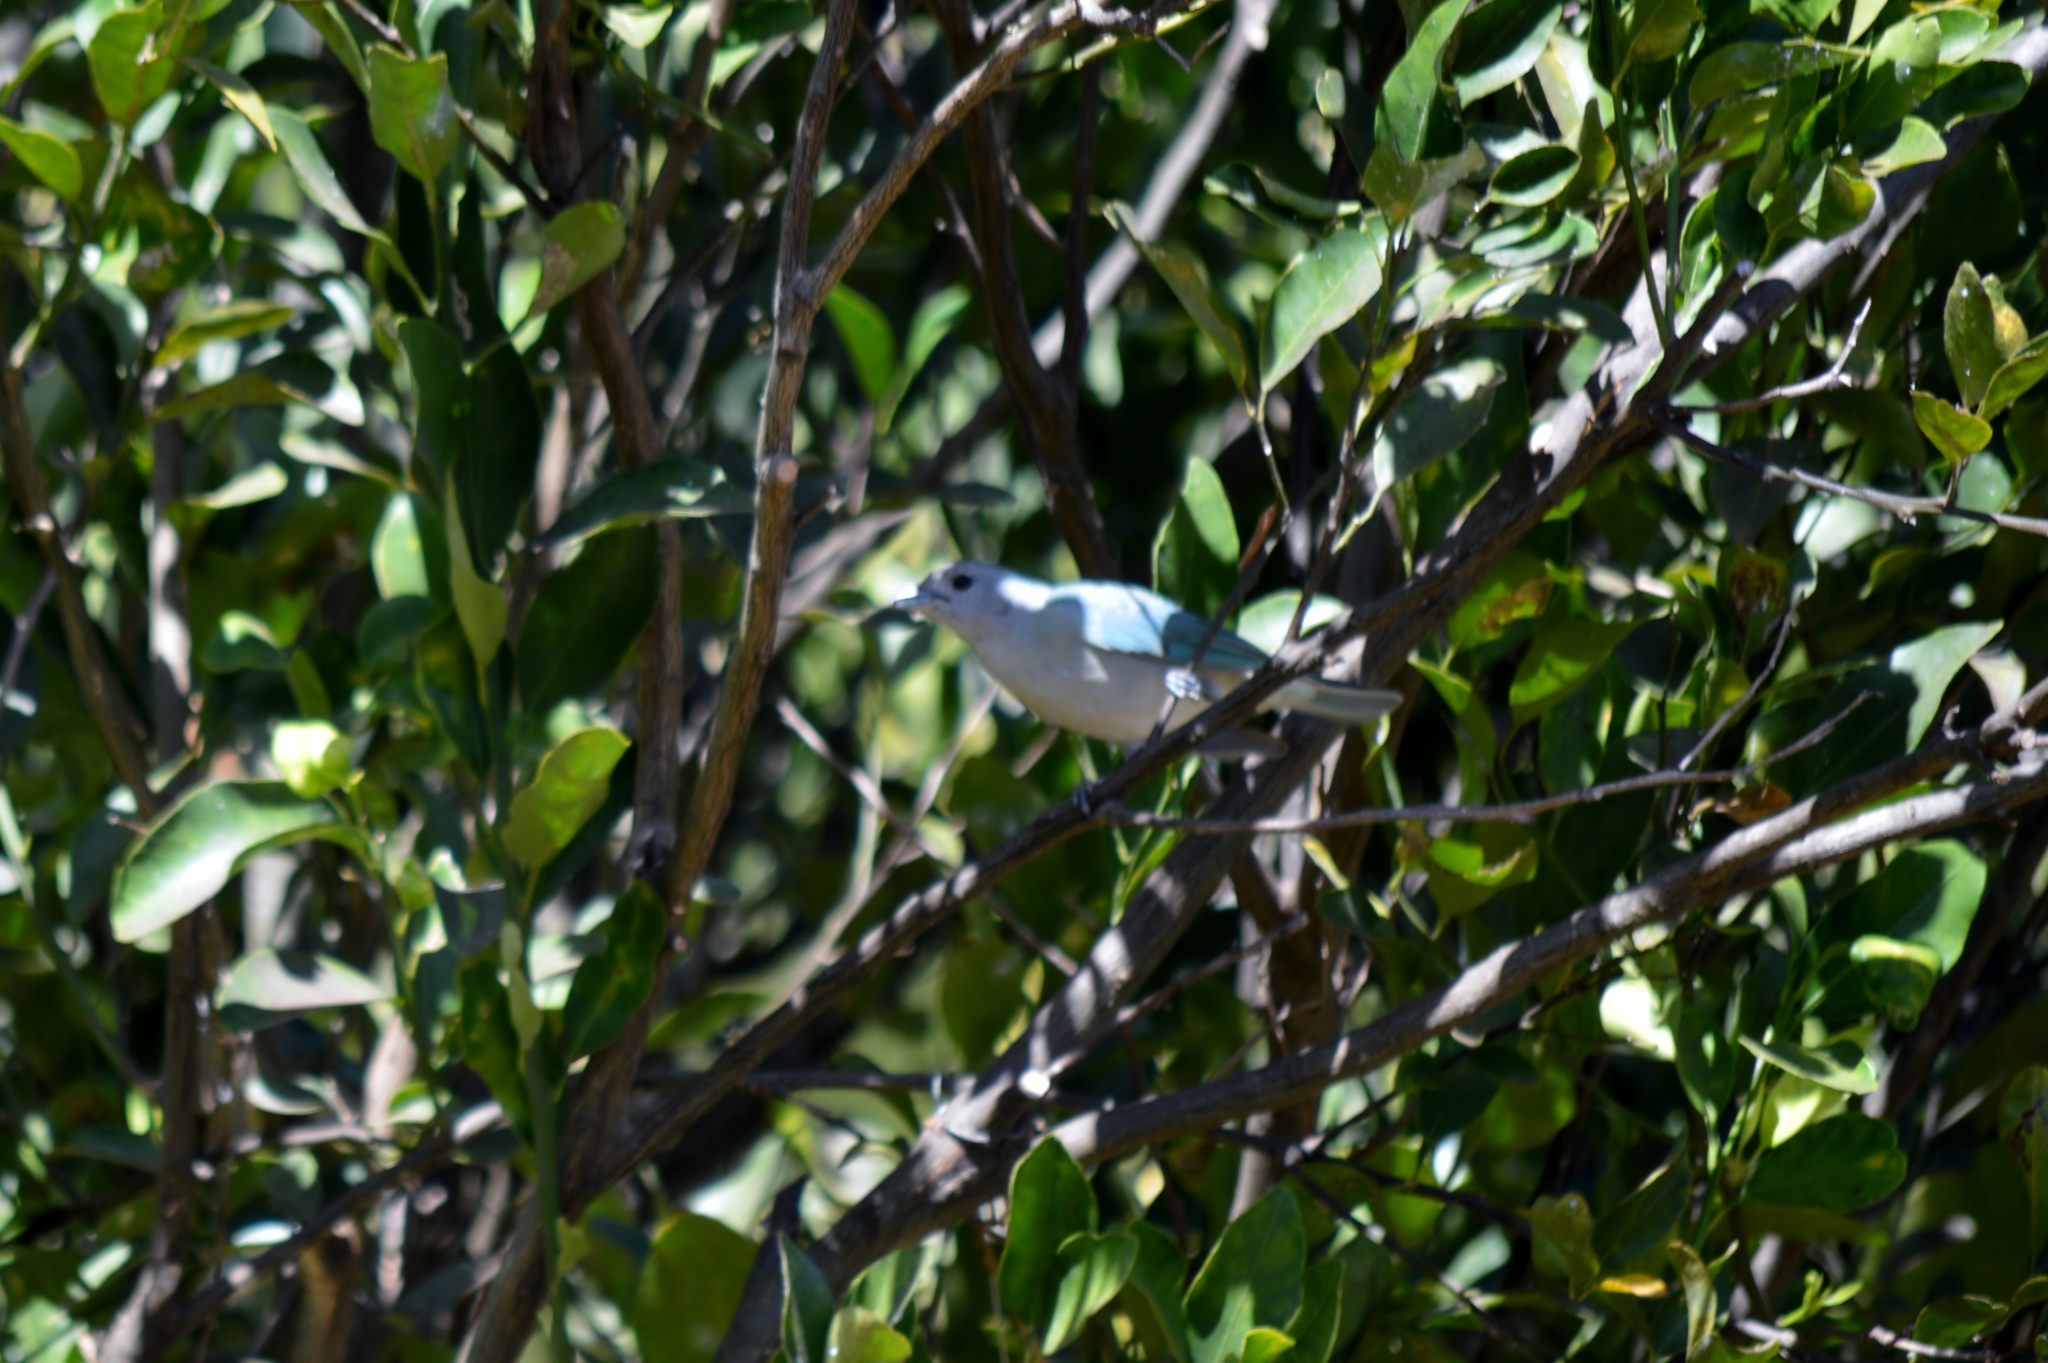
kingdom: Animalia
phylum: Chordata
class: Aves
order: Passeriformes
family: Thraupidae
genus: Thraupis
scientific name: Thraupis sayaca
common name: Sayaca tanager
